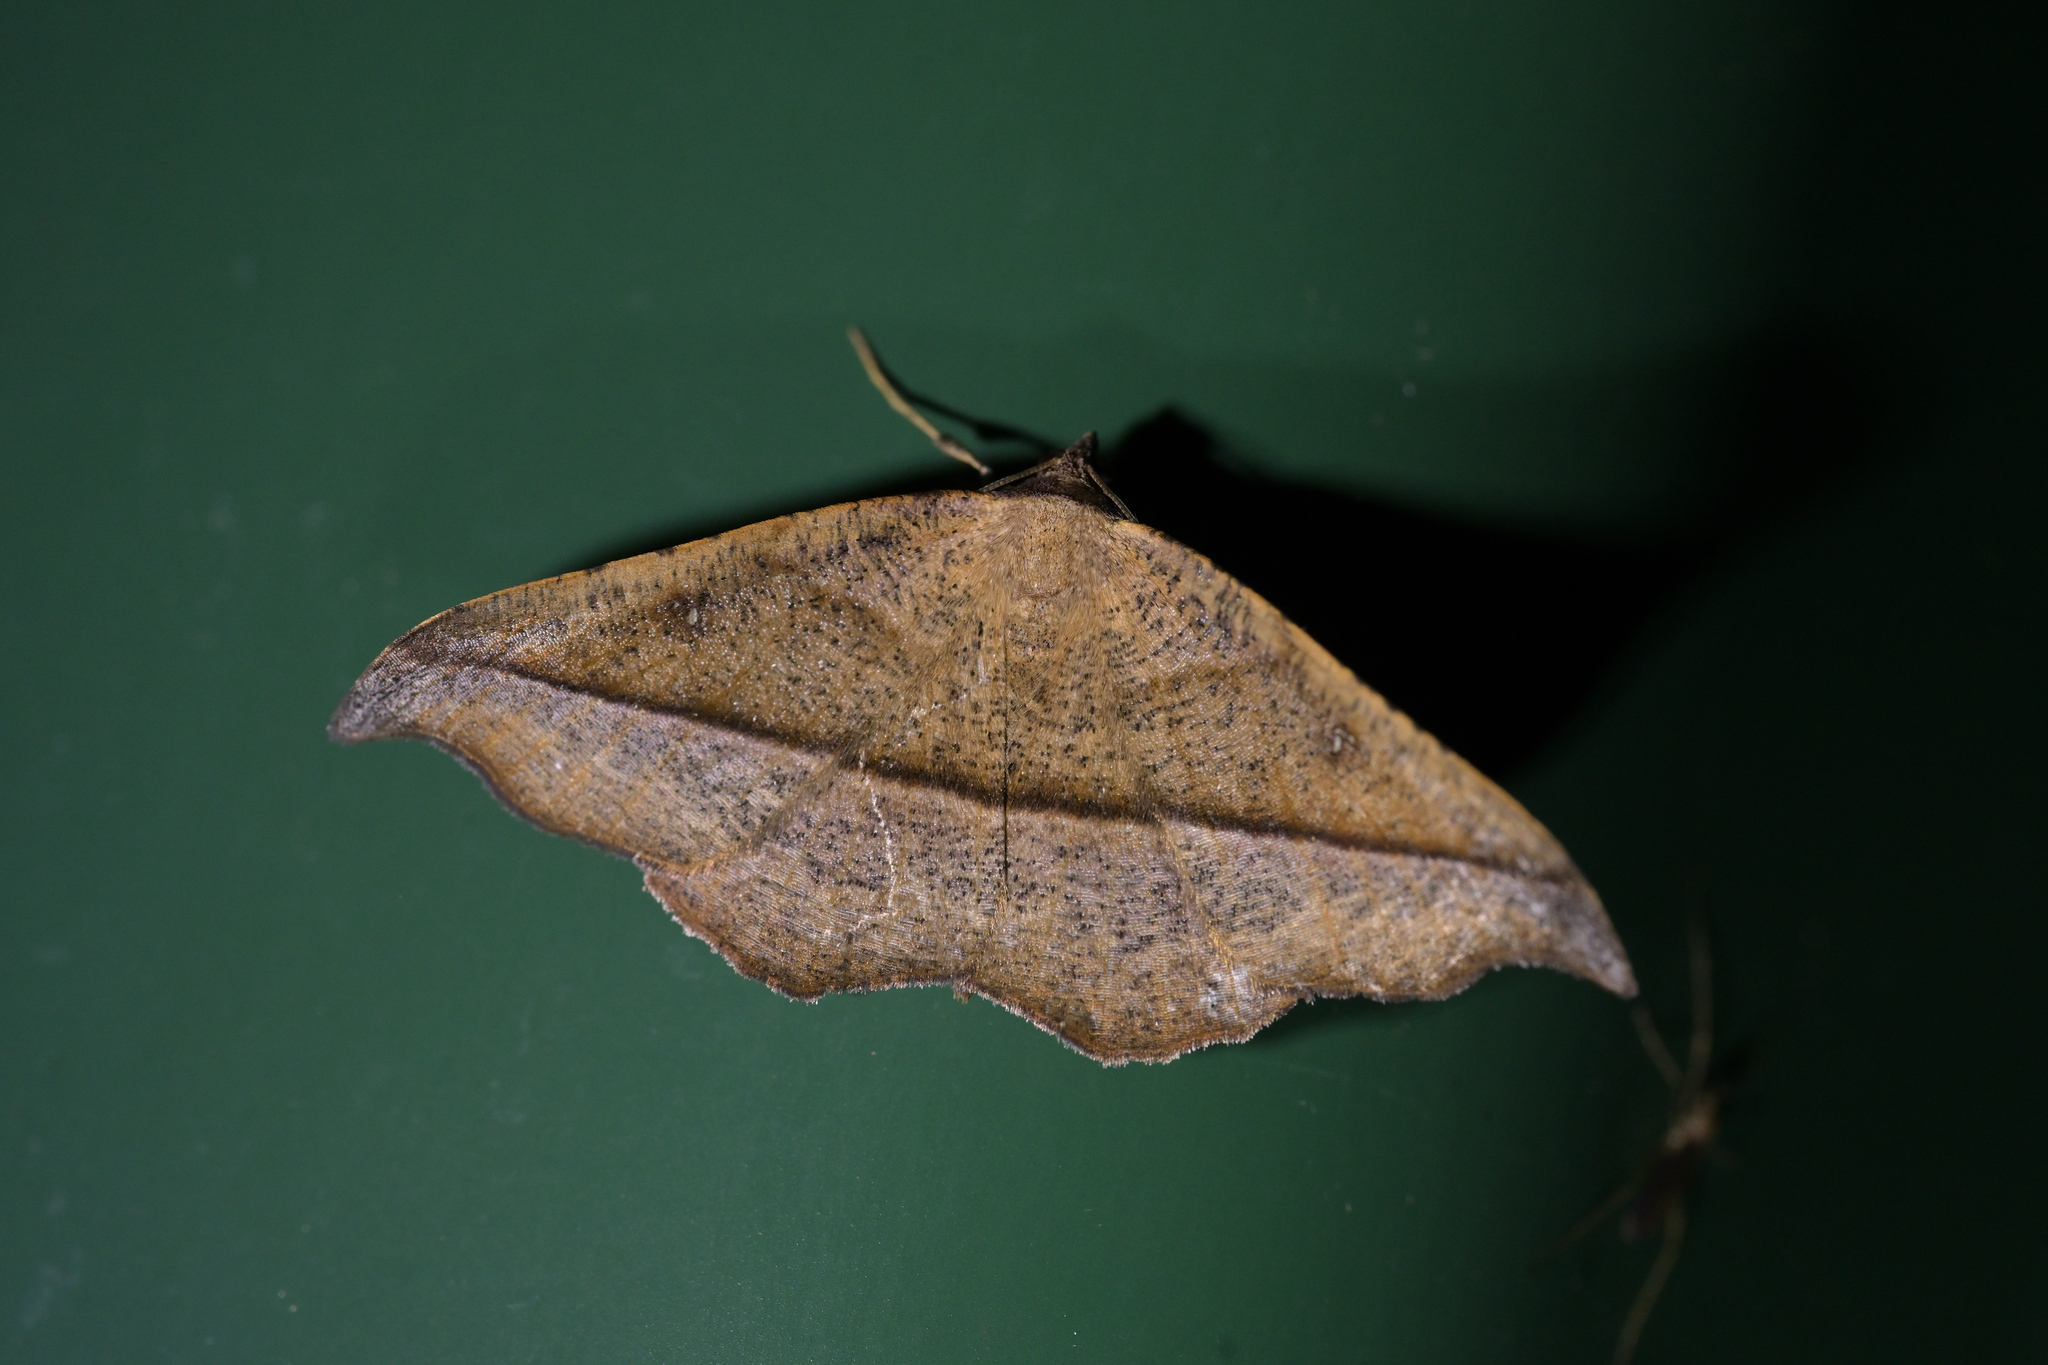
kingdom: Animalia
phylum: Arthropoda
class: Insecta
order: Lepidoptera
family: Geometridae
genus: Sarisa
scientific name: Sarisa muriferata
